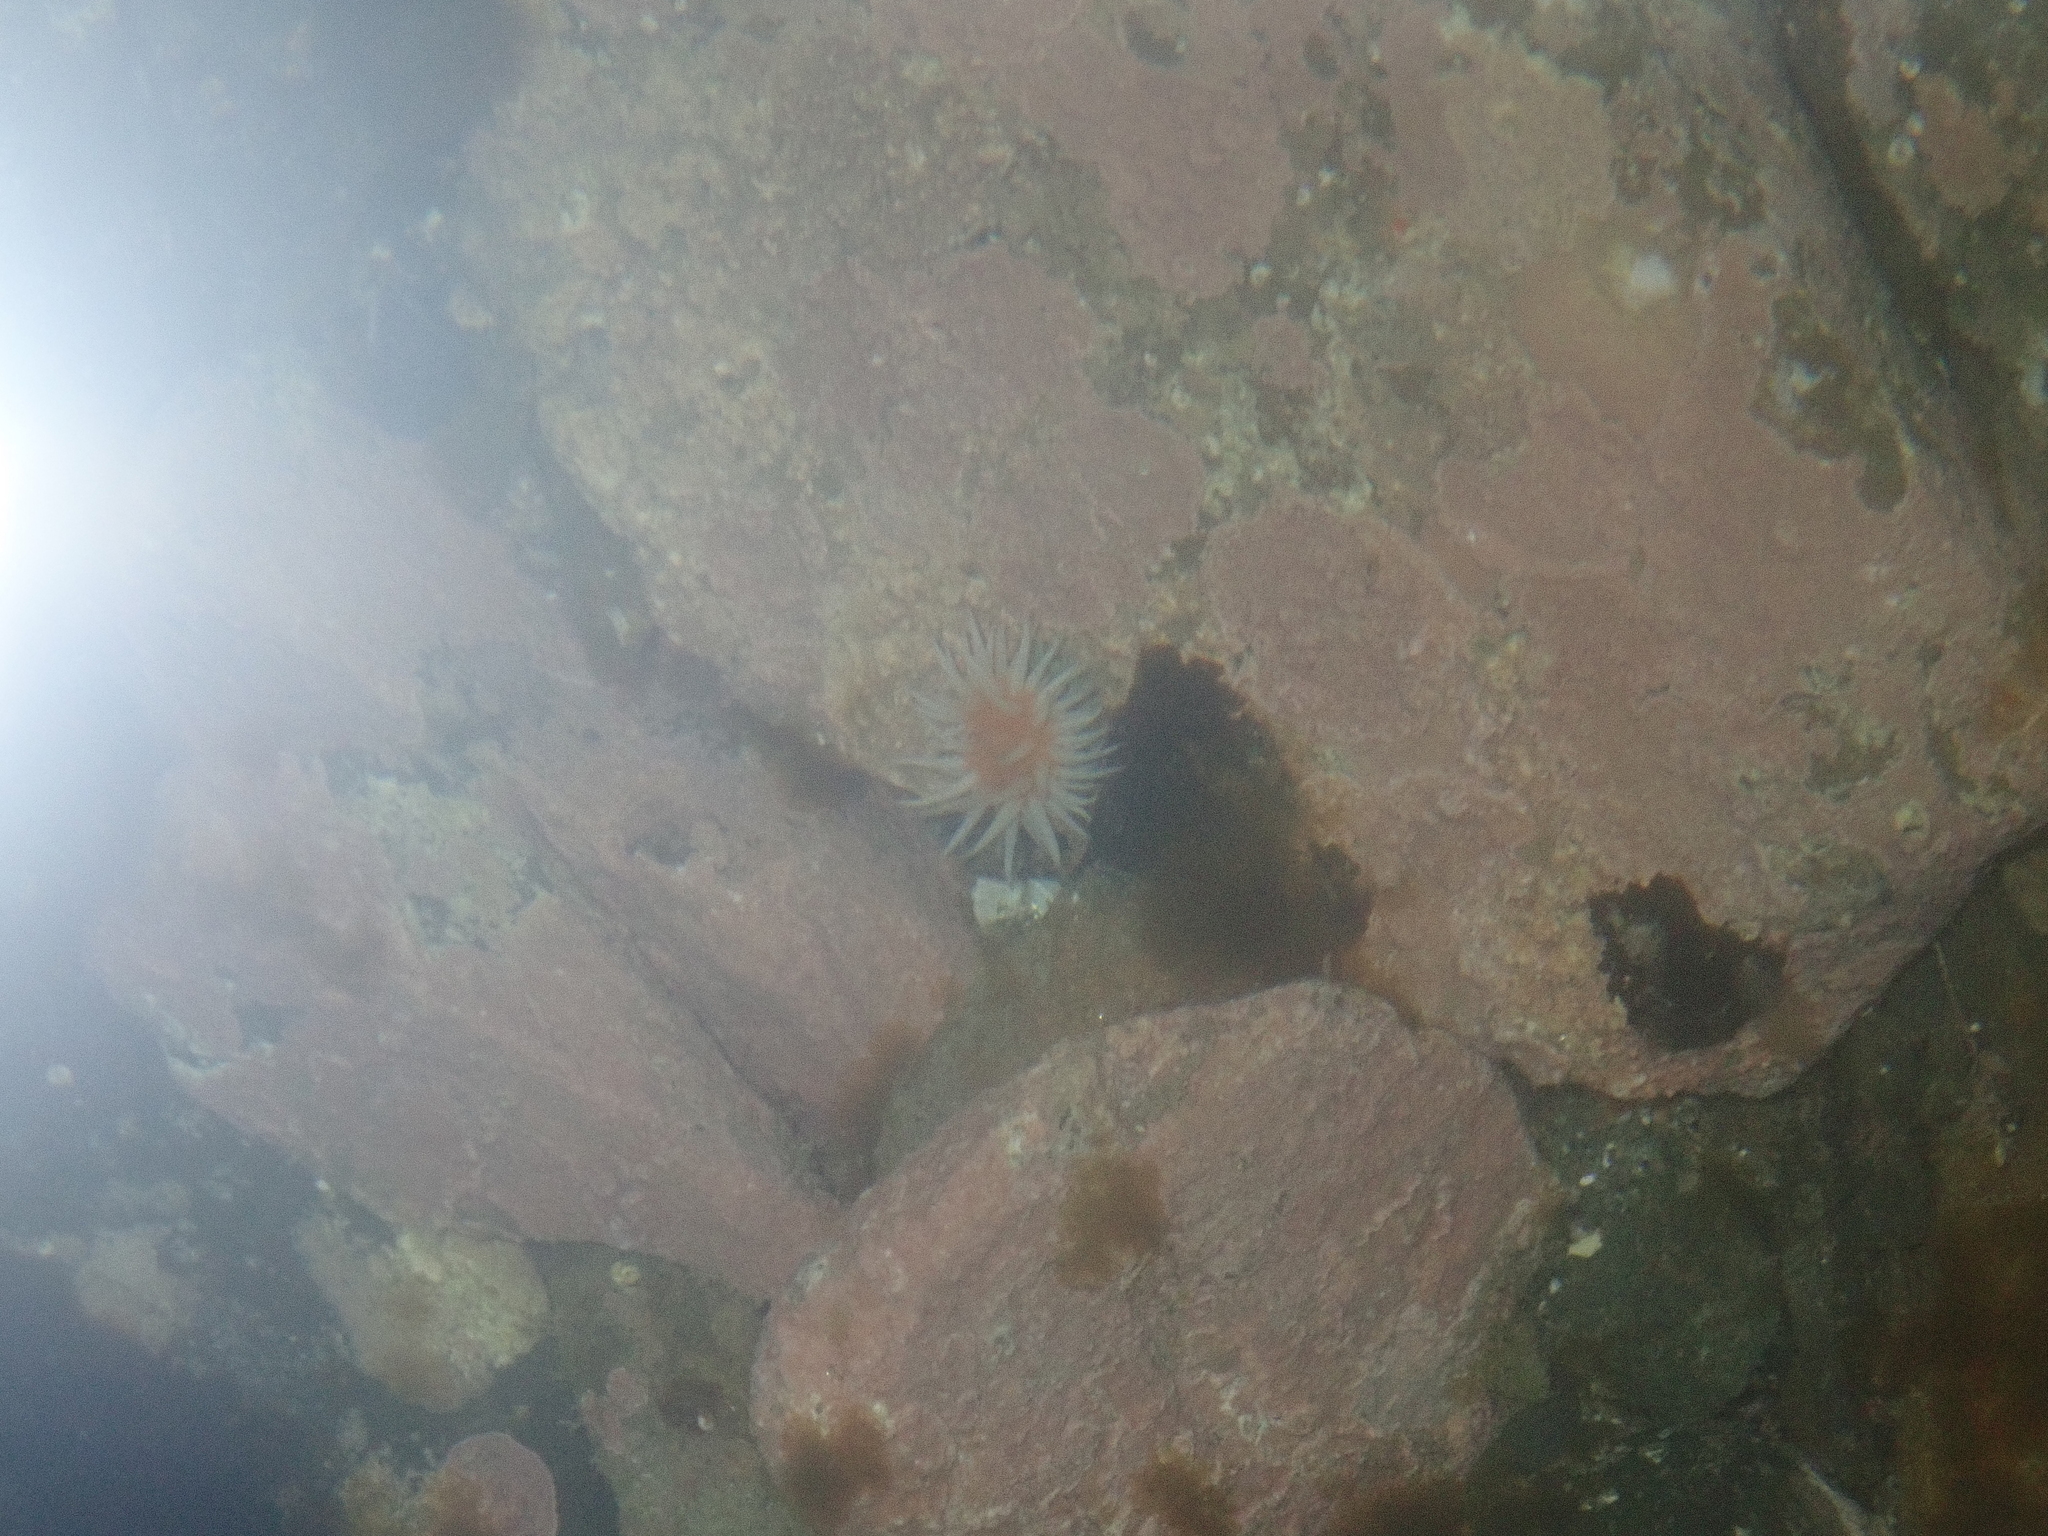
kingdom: Animalia
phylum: Cnidaria
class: Anthozoa
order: Actiniaria
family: Sagartiidae
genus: Anthothoe
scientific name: Anthothoe albocincta
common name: Orange striped anemone
